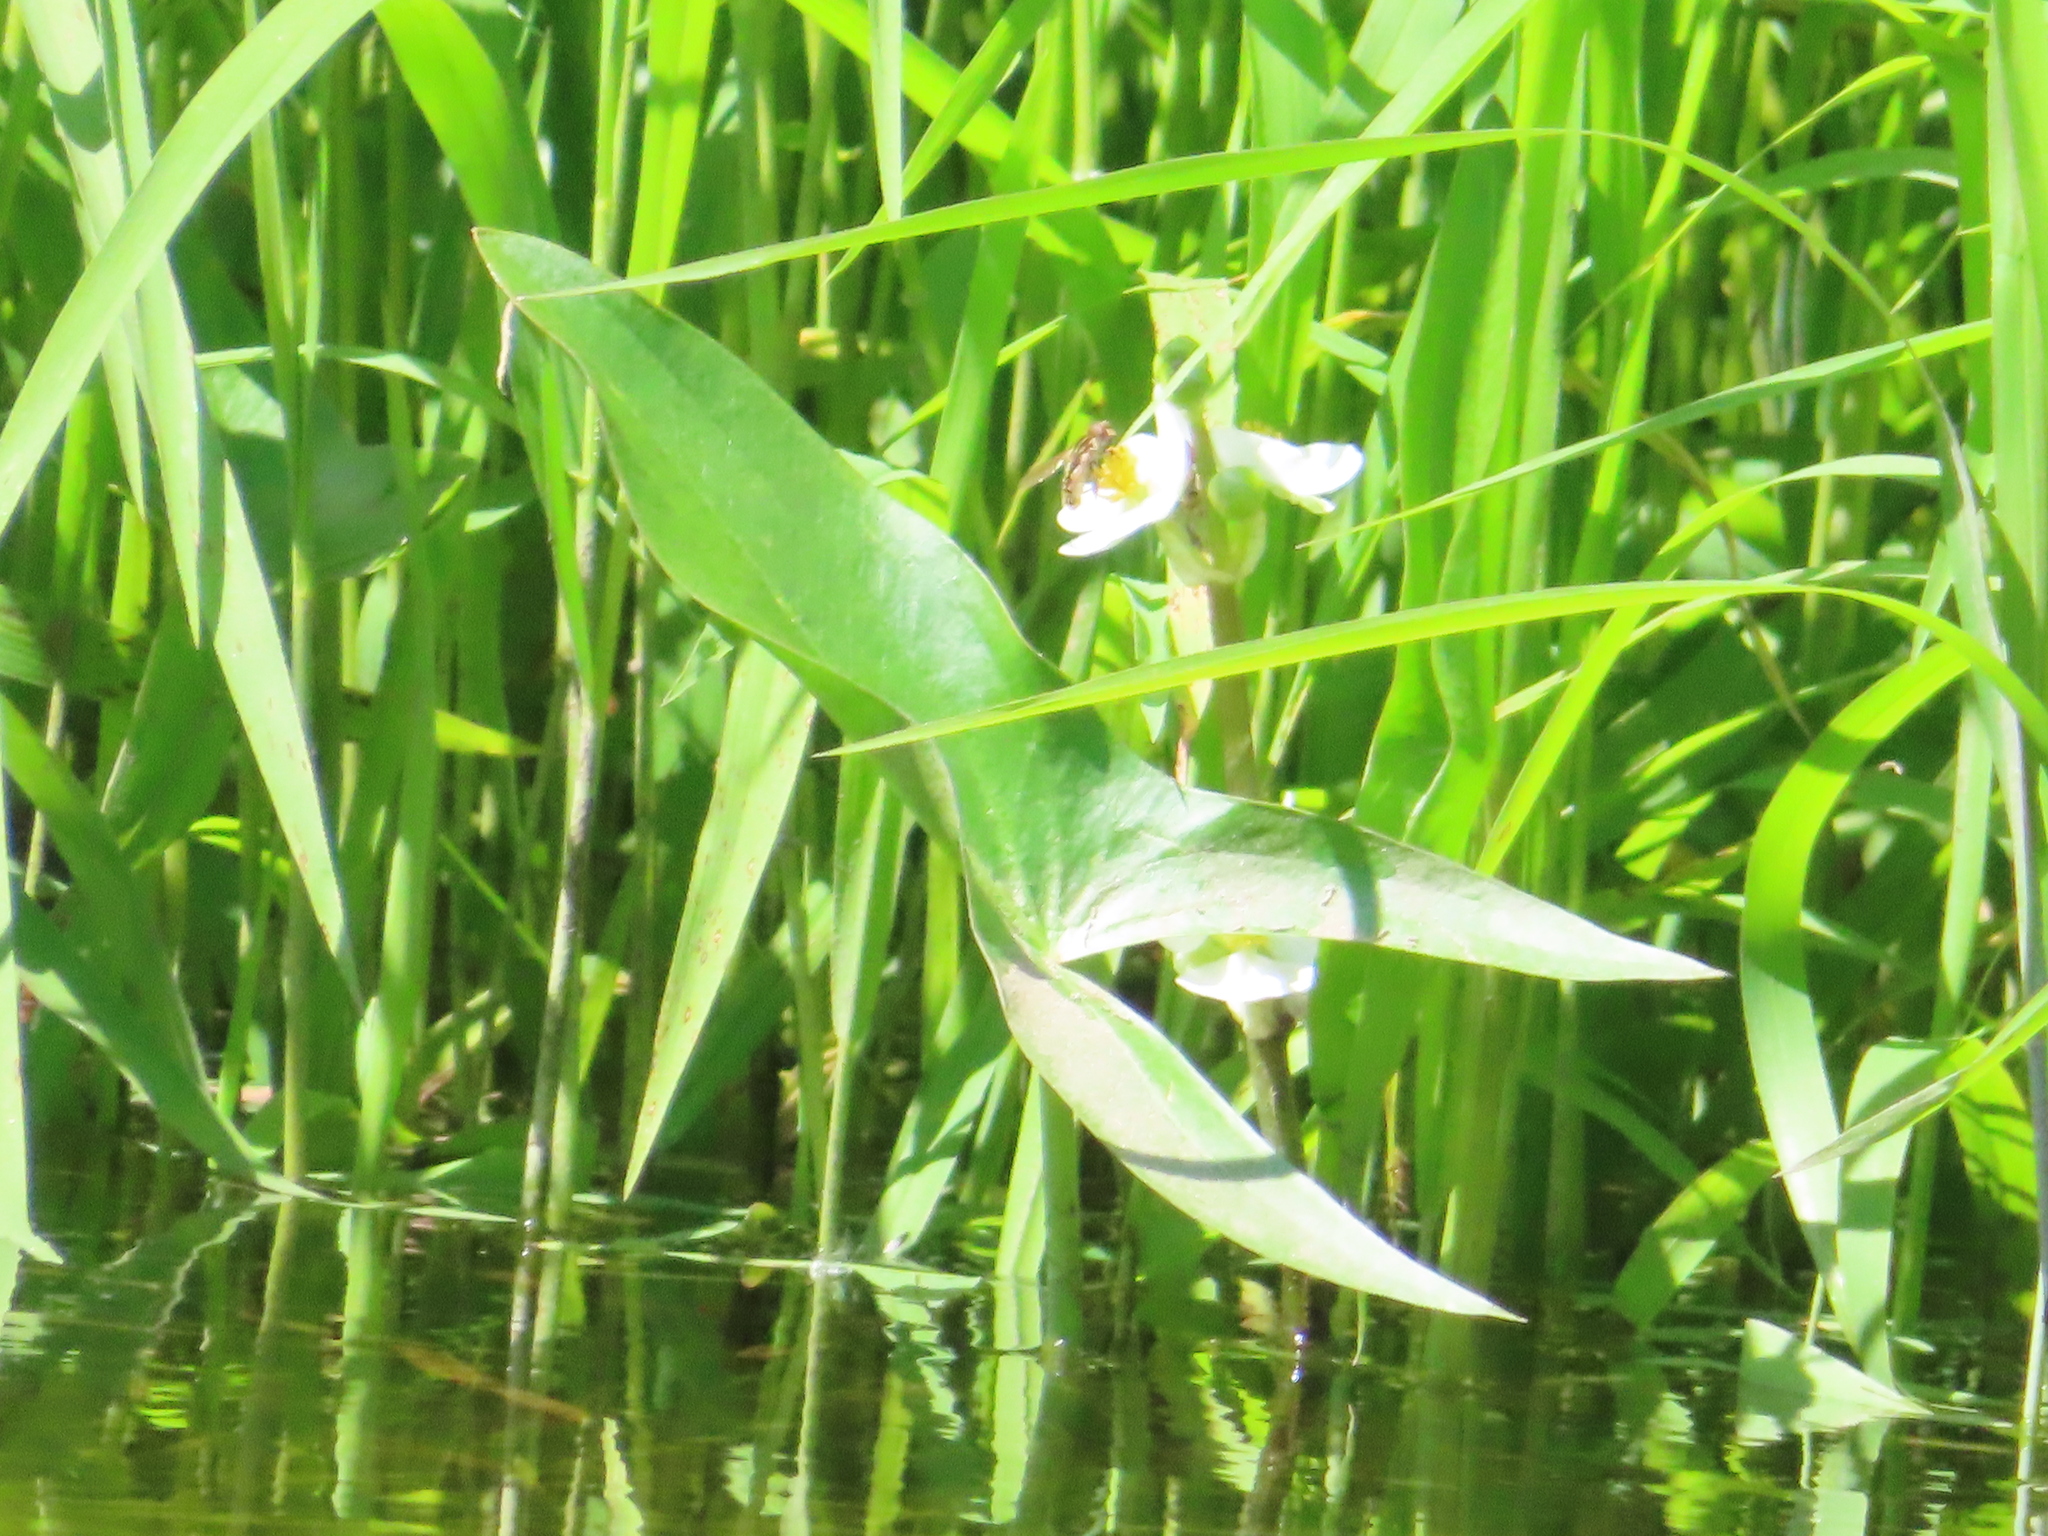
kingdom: Plantae
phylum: Tracheophyta
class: Liliopsida
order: Alismatales
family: Alismataceae
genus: Sagittaria
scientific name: Sagittaria latifolia
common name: Duck-potato
